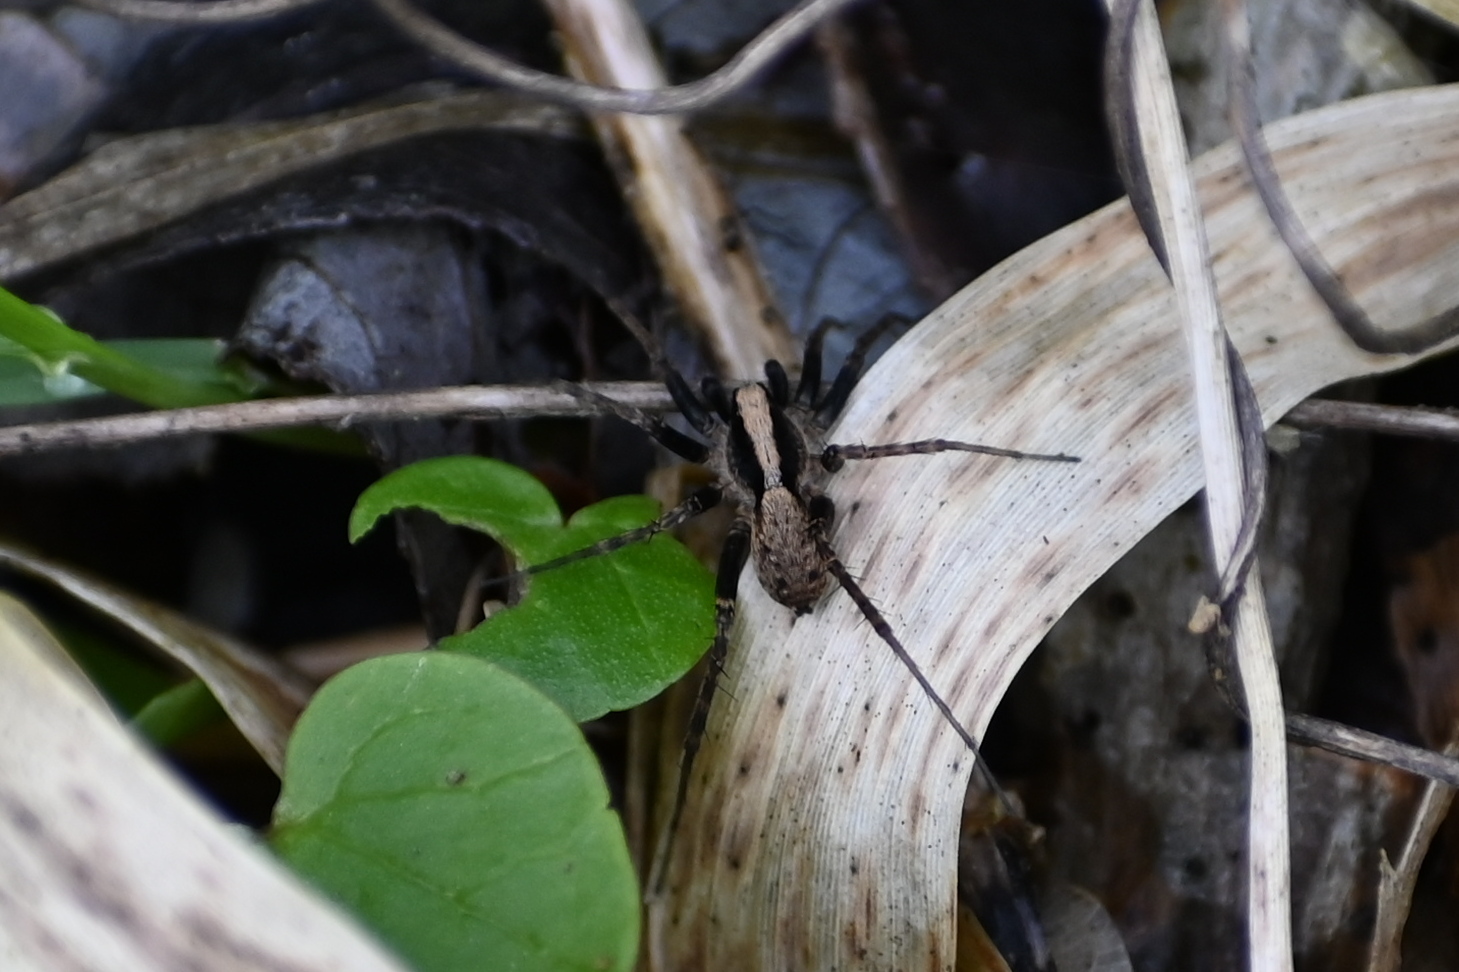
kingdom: Animalia
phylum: Arthropoda
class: Arachnida
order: Araneae
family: Lycosidae
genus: Pardosa
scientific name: Pardosa
